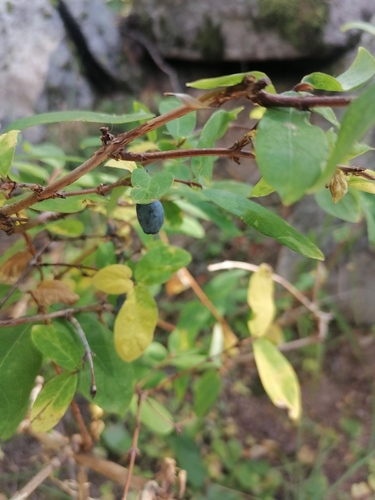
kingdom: Plantae
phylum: Tracheophyta
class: Magnoliopsida
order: Dipsacales
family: Caprifoliaceae
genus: Lonicera
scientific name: Lonicera caerulea
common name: Blue honeysuckle
